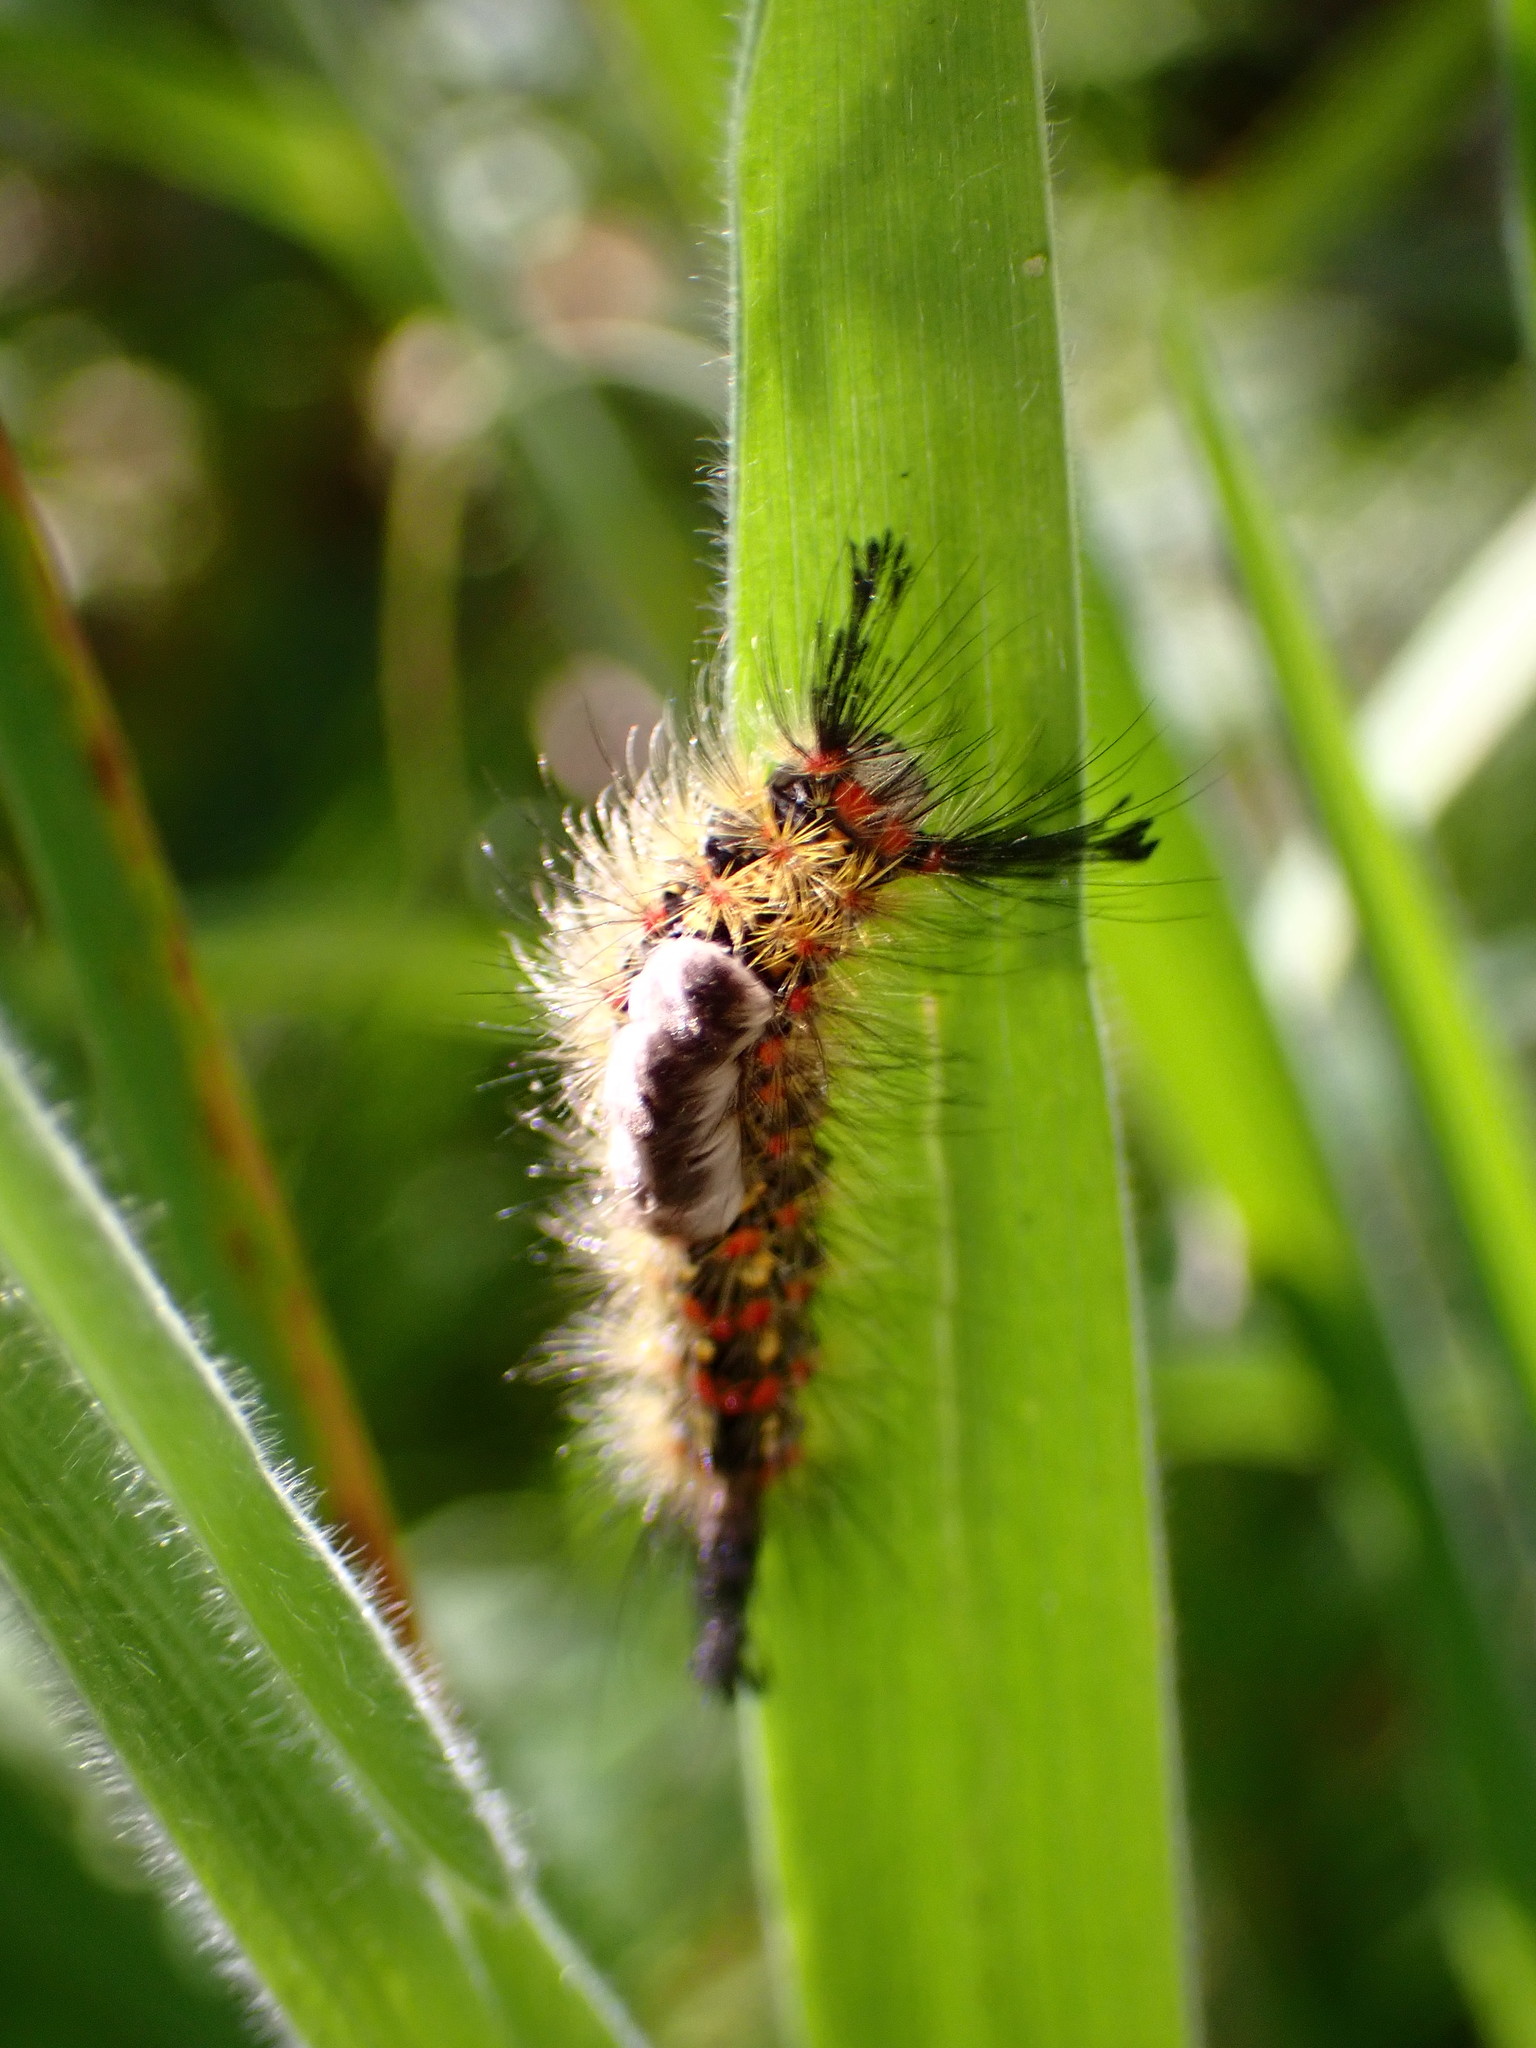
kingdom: Animalia
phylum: Arthropoda
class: Insecta
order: Lepidoptera
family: Erebidae
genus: Orgyia
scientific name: Orgyia
